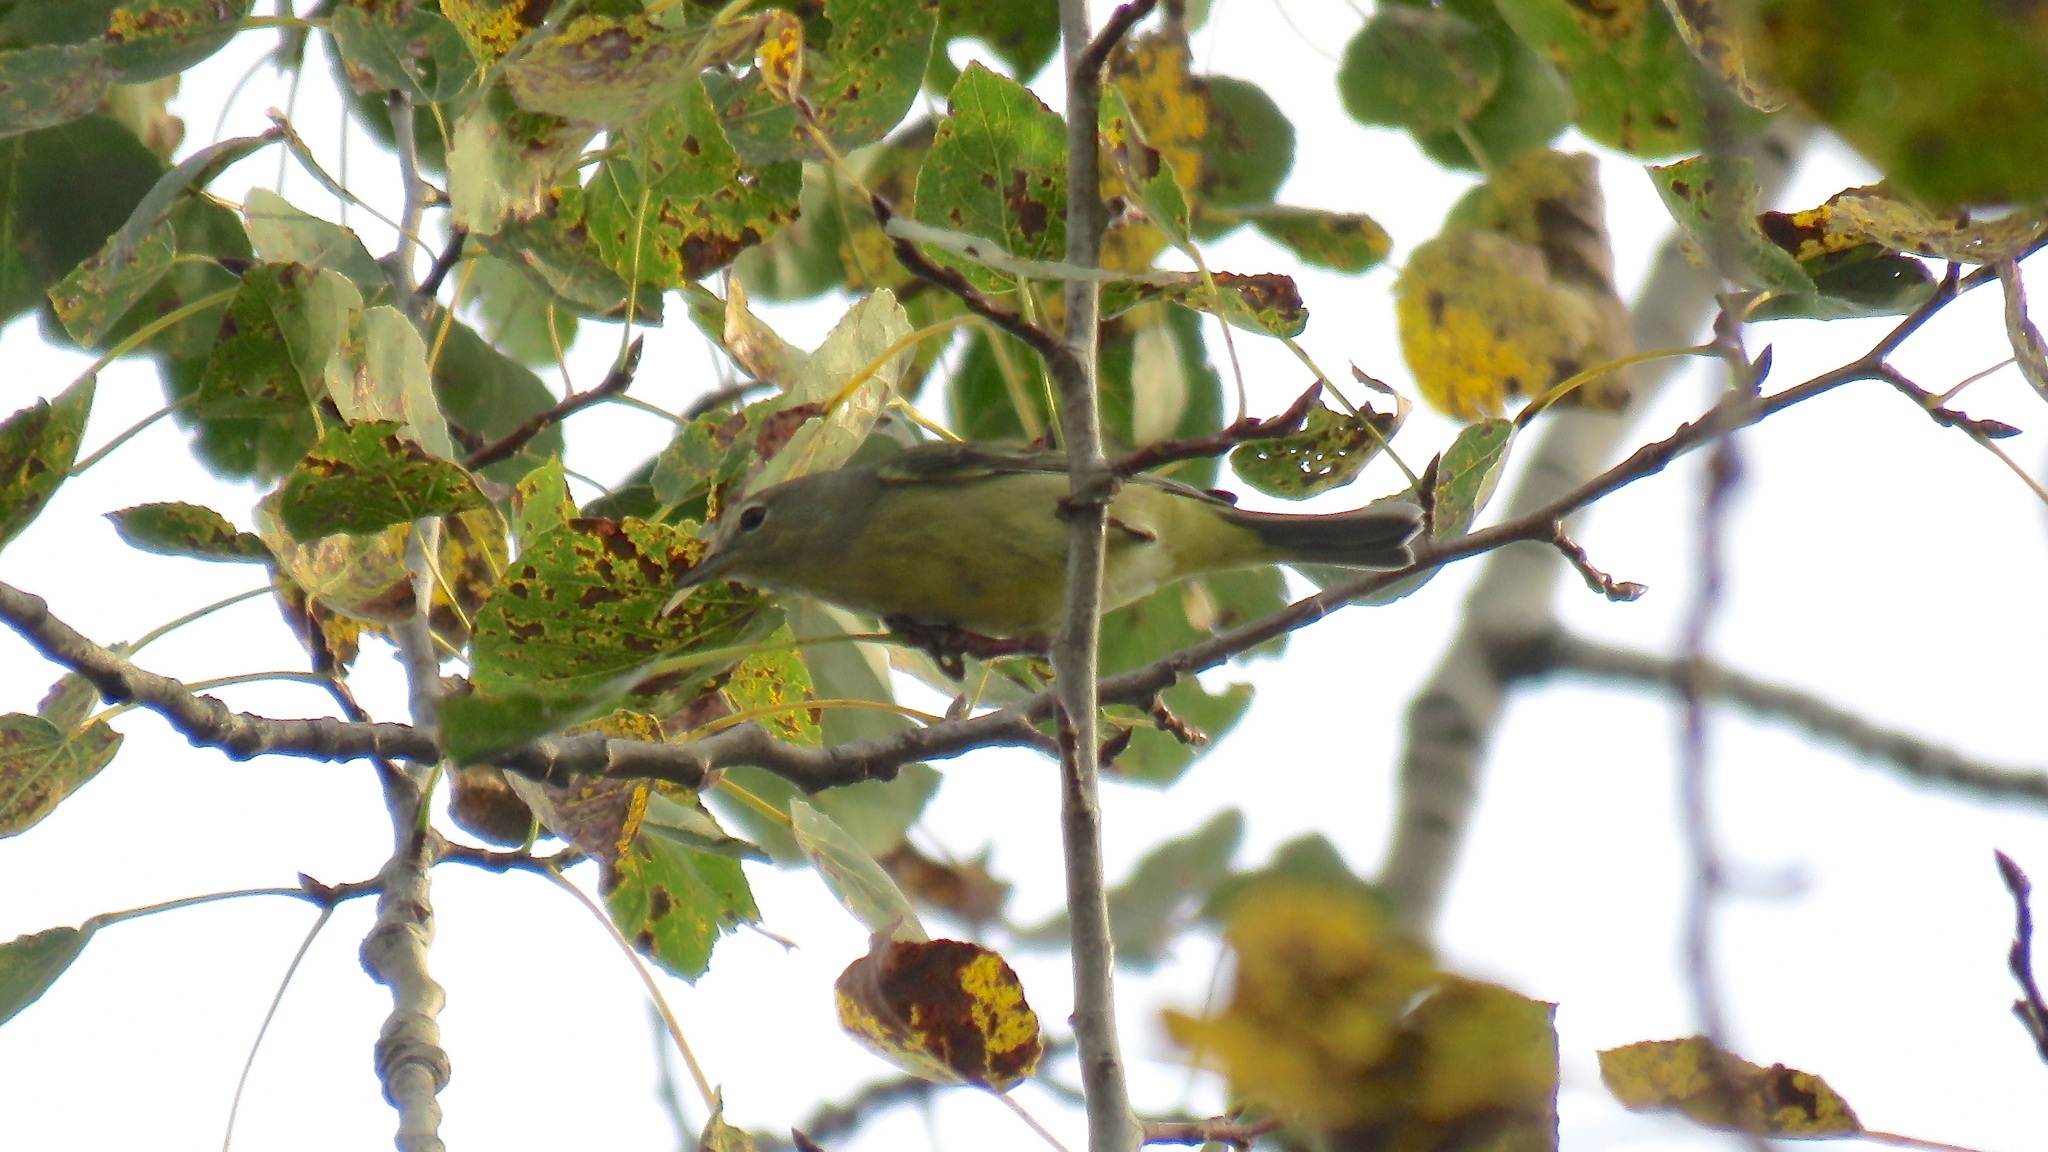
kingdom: Animalia
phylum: Chordata
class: Aves
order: Passeriformes
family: Parulidae
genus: Leiothlypis
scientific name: Leiothlypis celata
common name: Orange-crowned warbler
